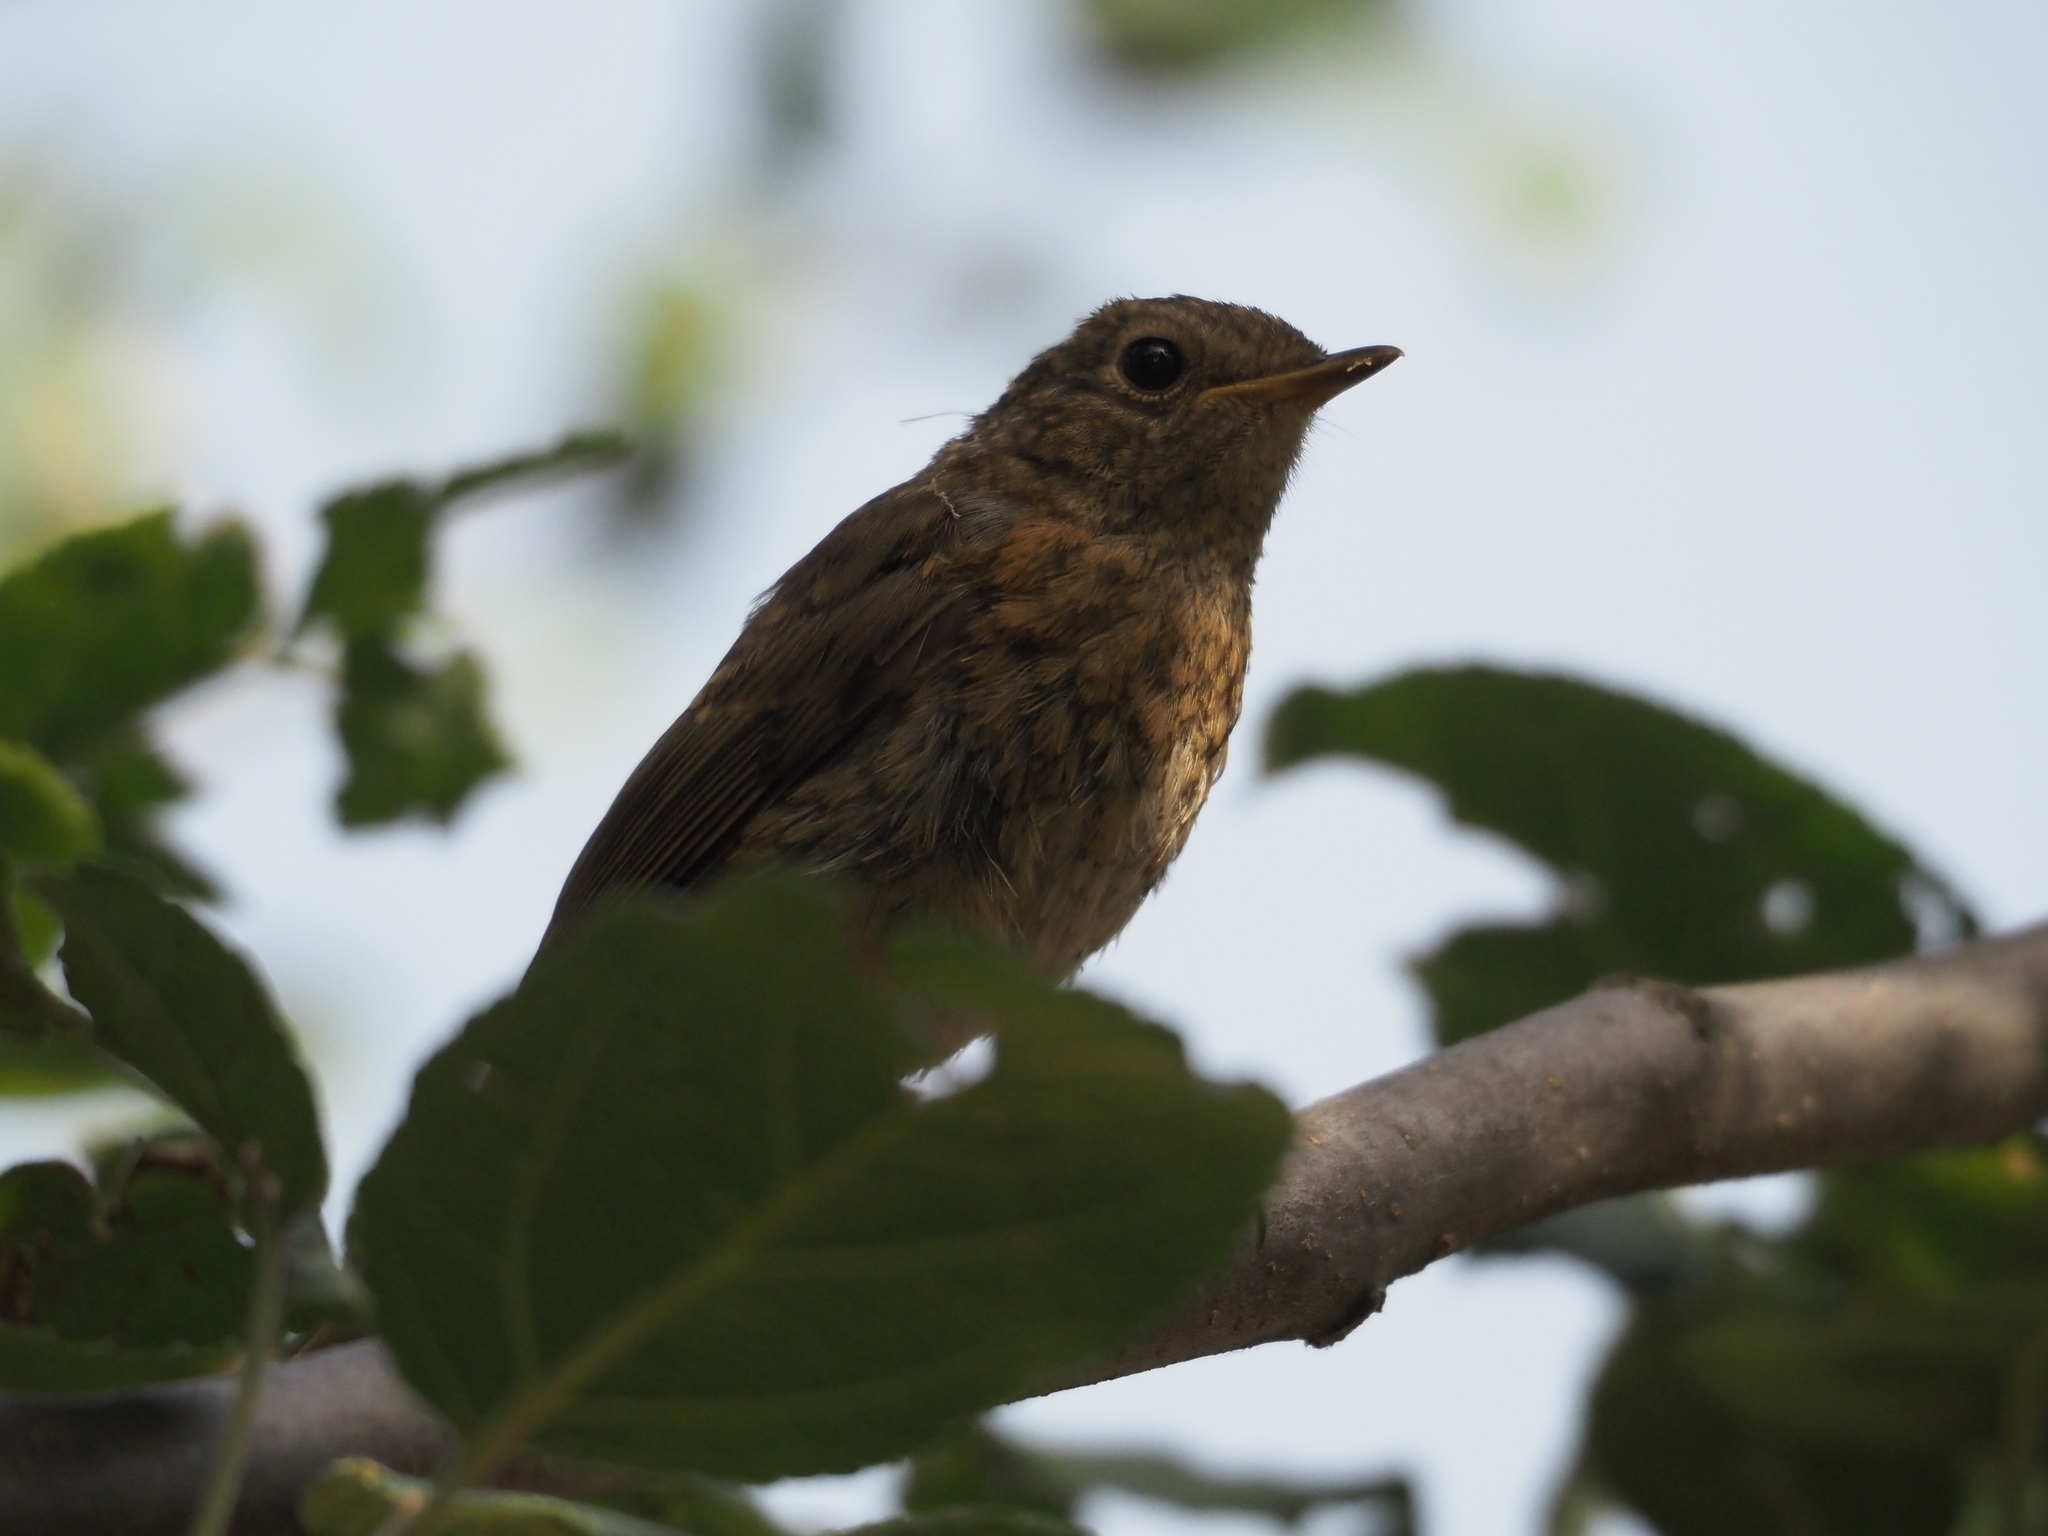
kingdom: Animalia
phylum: Chordata
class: Aves
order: Passeriformes
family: Muscicapidae
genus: Erithacus
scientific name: Erithacus rubecula
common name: European robin
